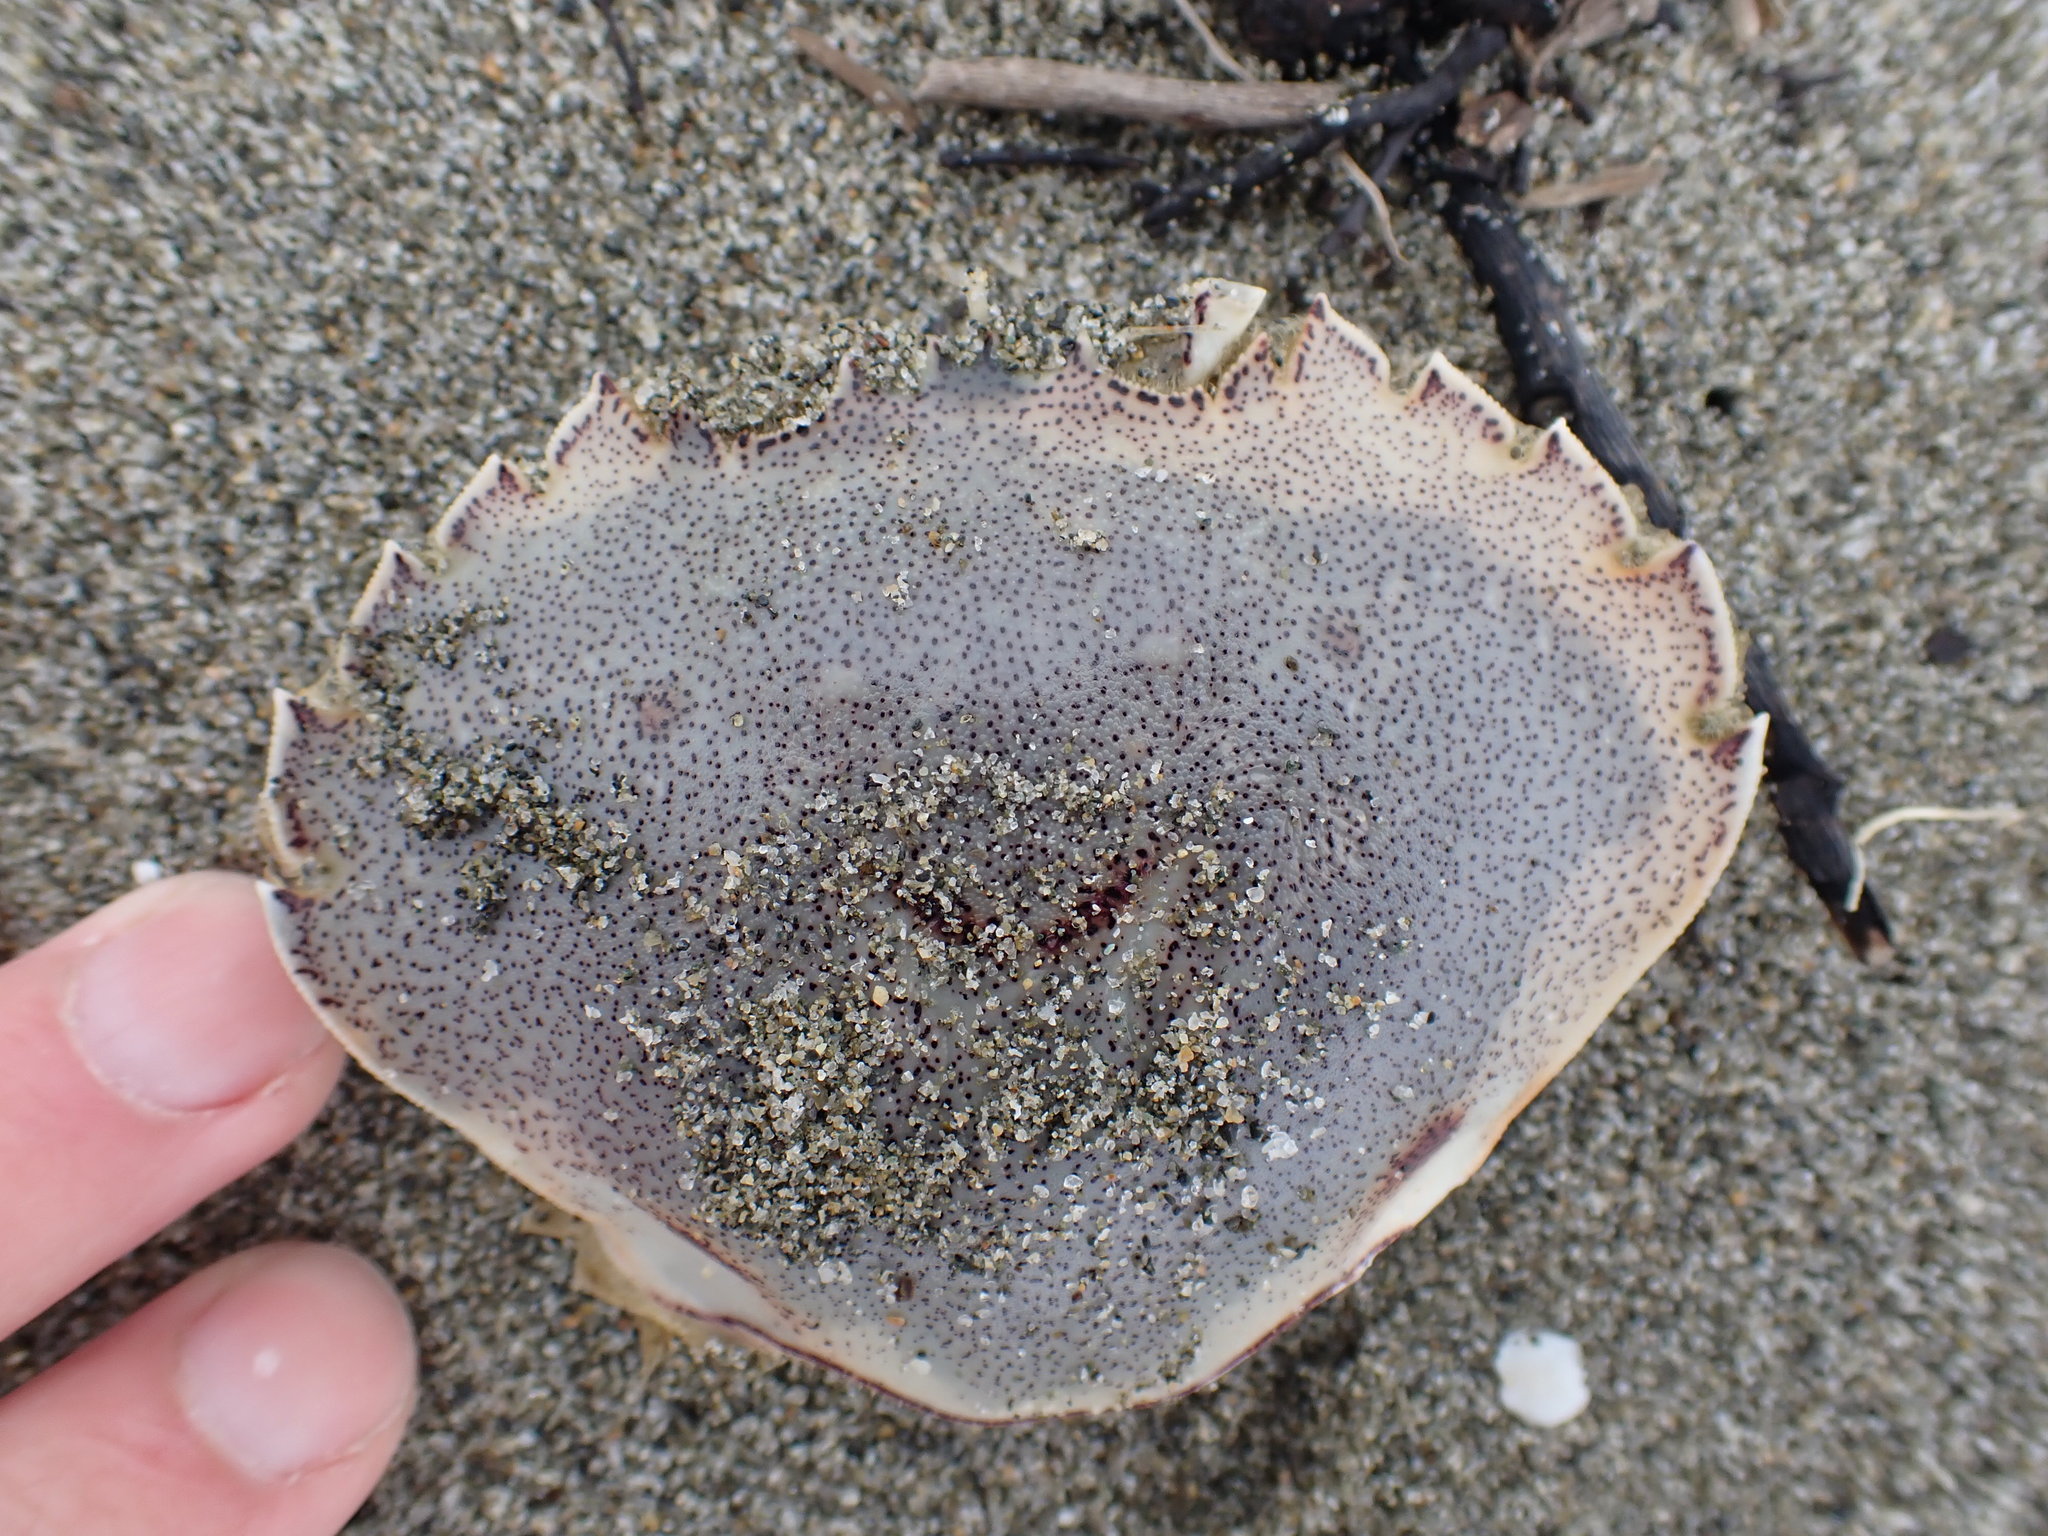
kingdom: Animalia
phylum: Arthropoda
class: Malacostraca
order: Decapoda
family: Ovalipidae
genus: Ovalipes
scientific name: Ovalipes catharus
